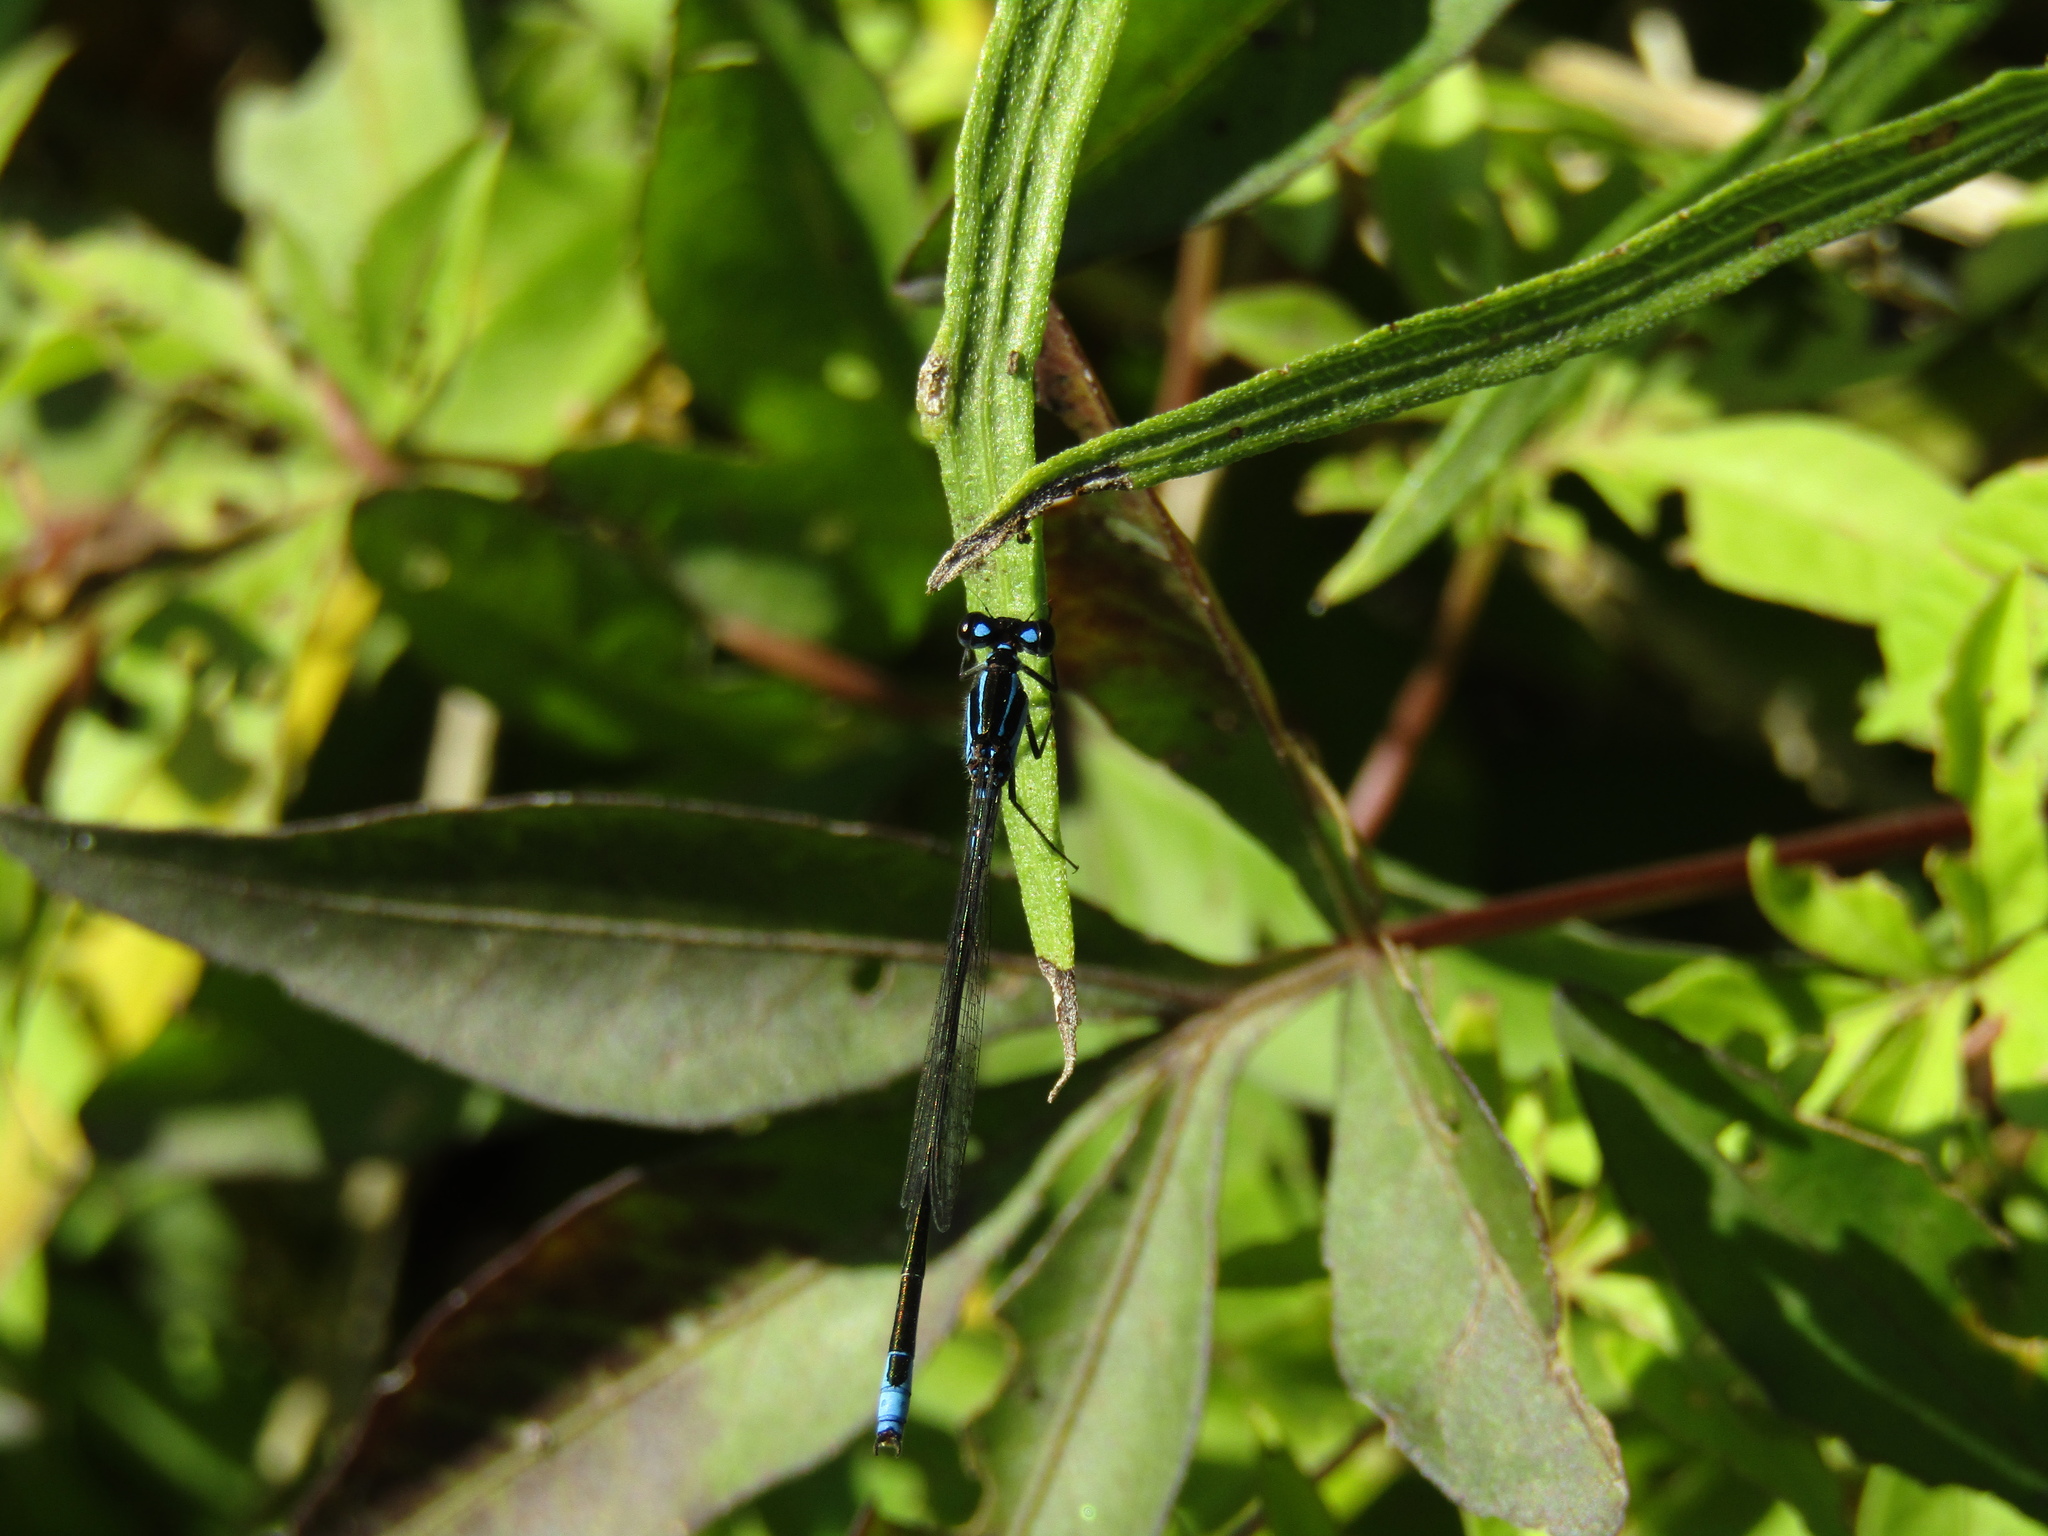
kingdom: Animalia
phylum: Arthropoda
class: Insecta
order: Odonata
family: Coenagrionidae
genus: Homeoura
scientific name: Homeoura chelifera
